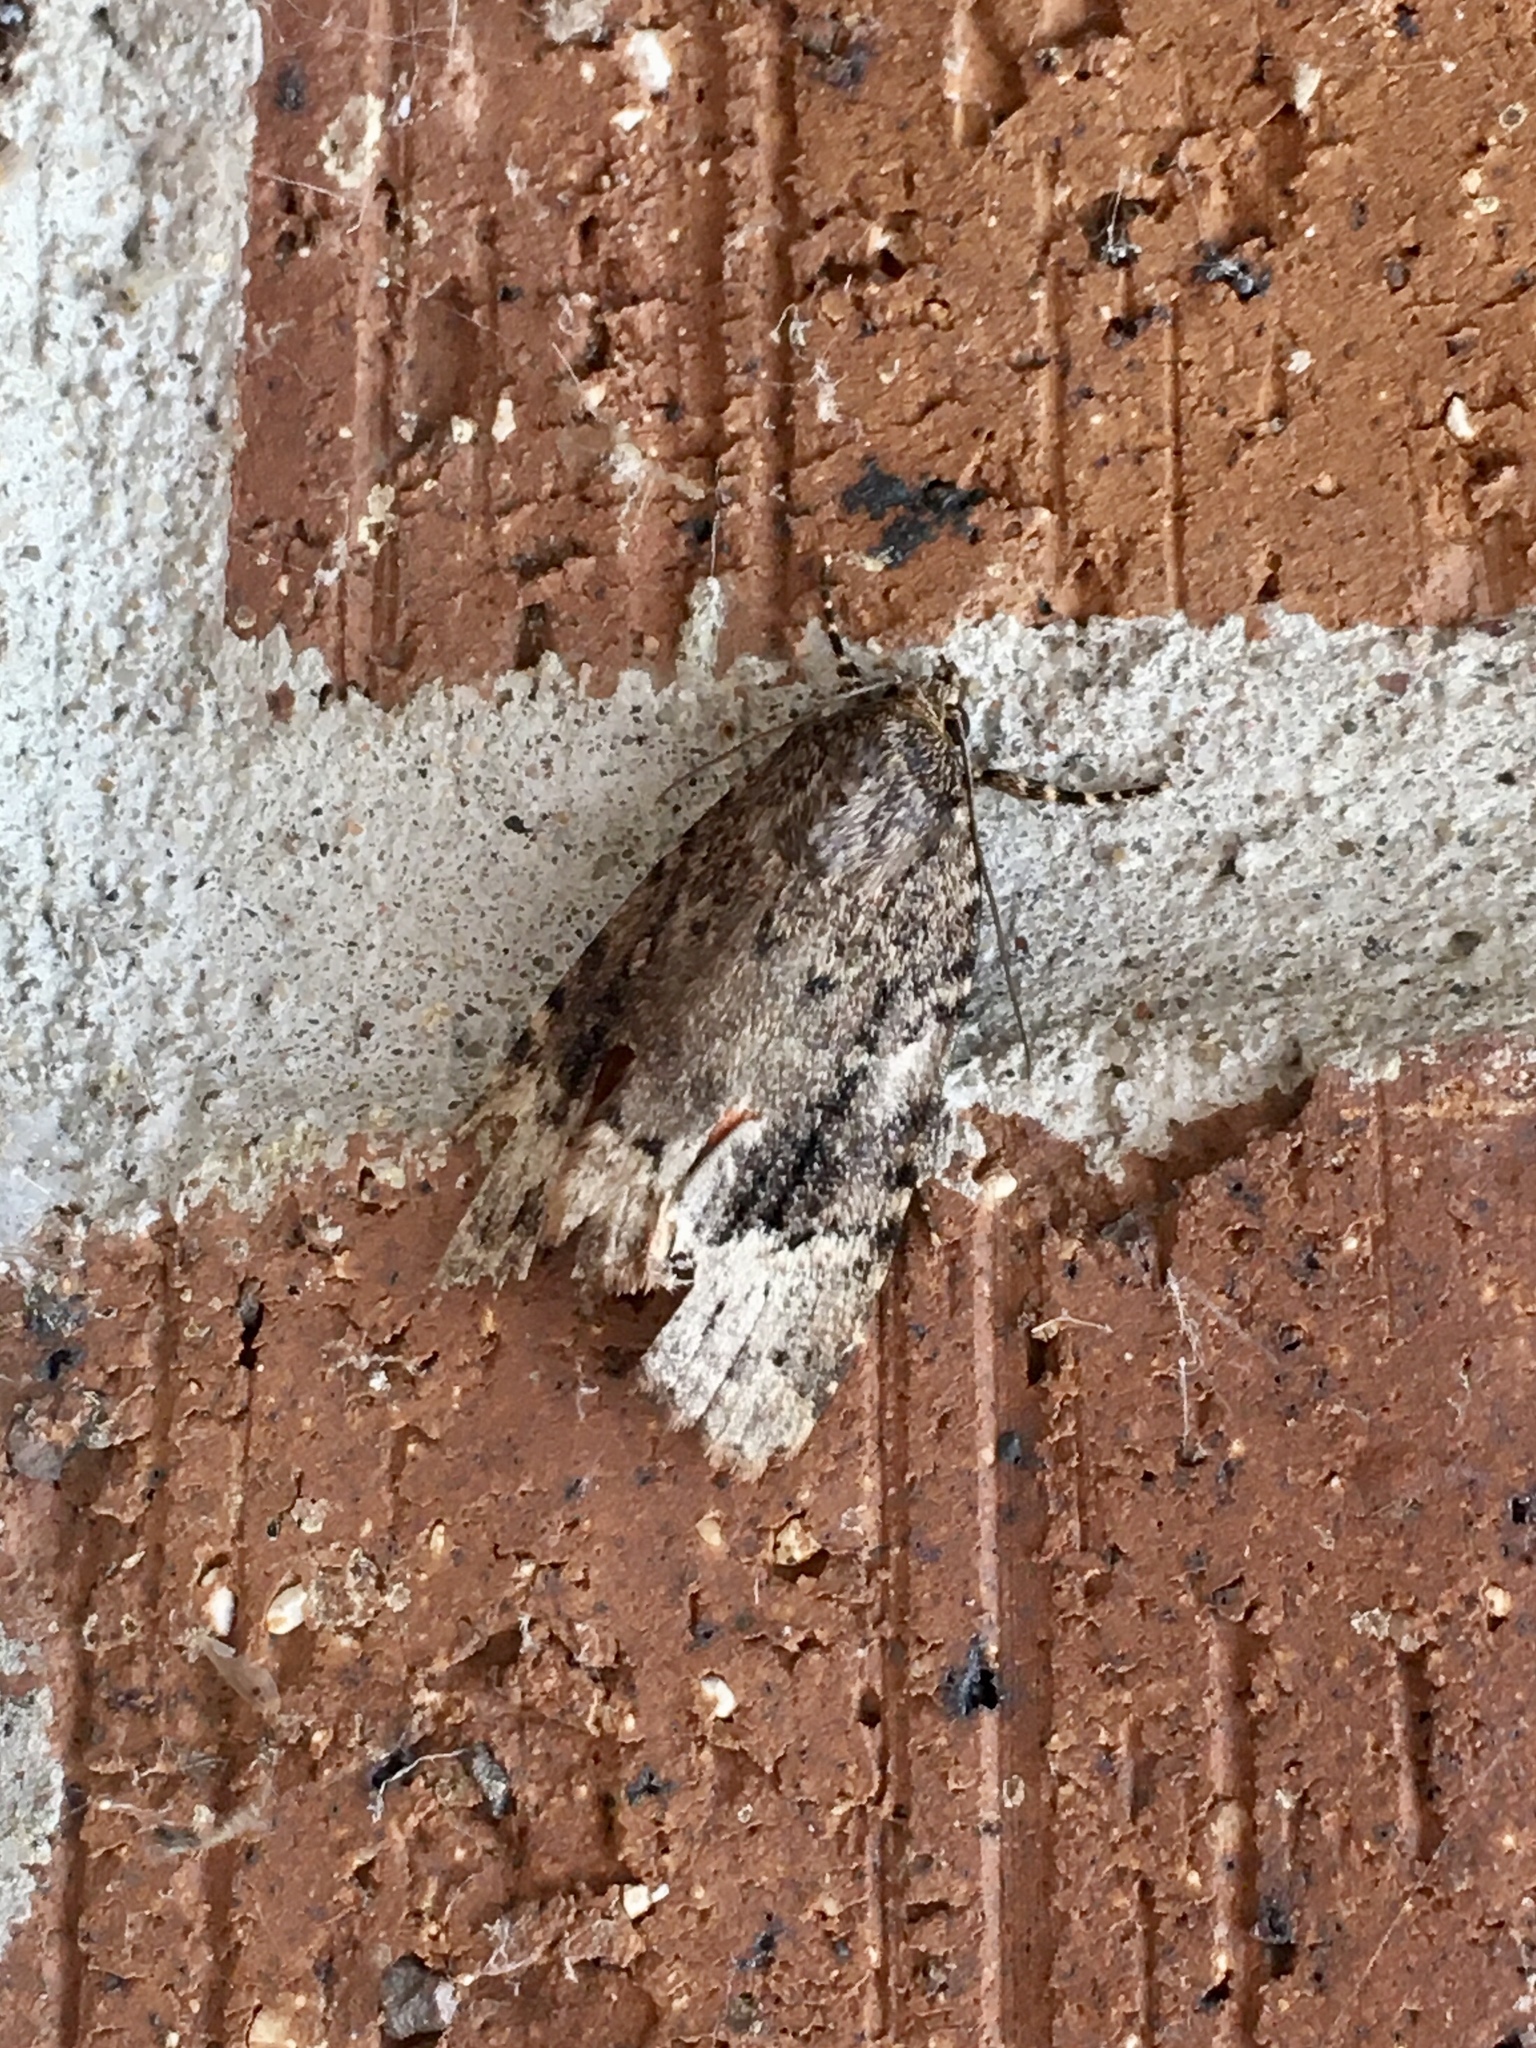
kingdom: Animalia
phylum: Arthropoda
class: Insecta
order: Lepidoptera
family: Noctuidae
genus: Amphipyra
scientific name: Amphipyra pyramidoides
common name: American copper underwing
